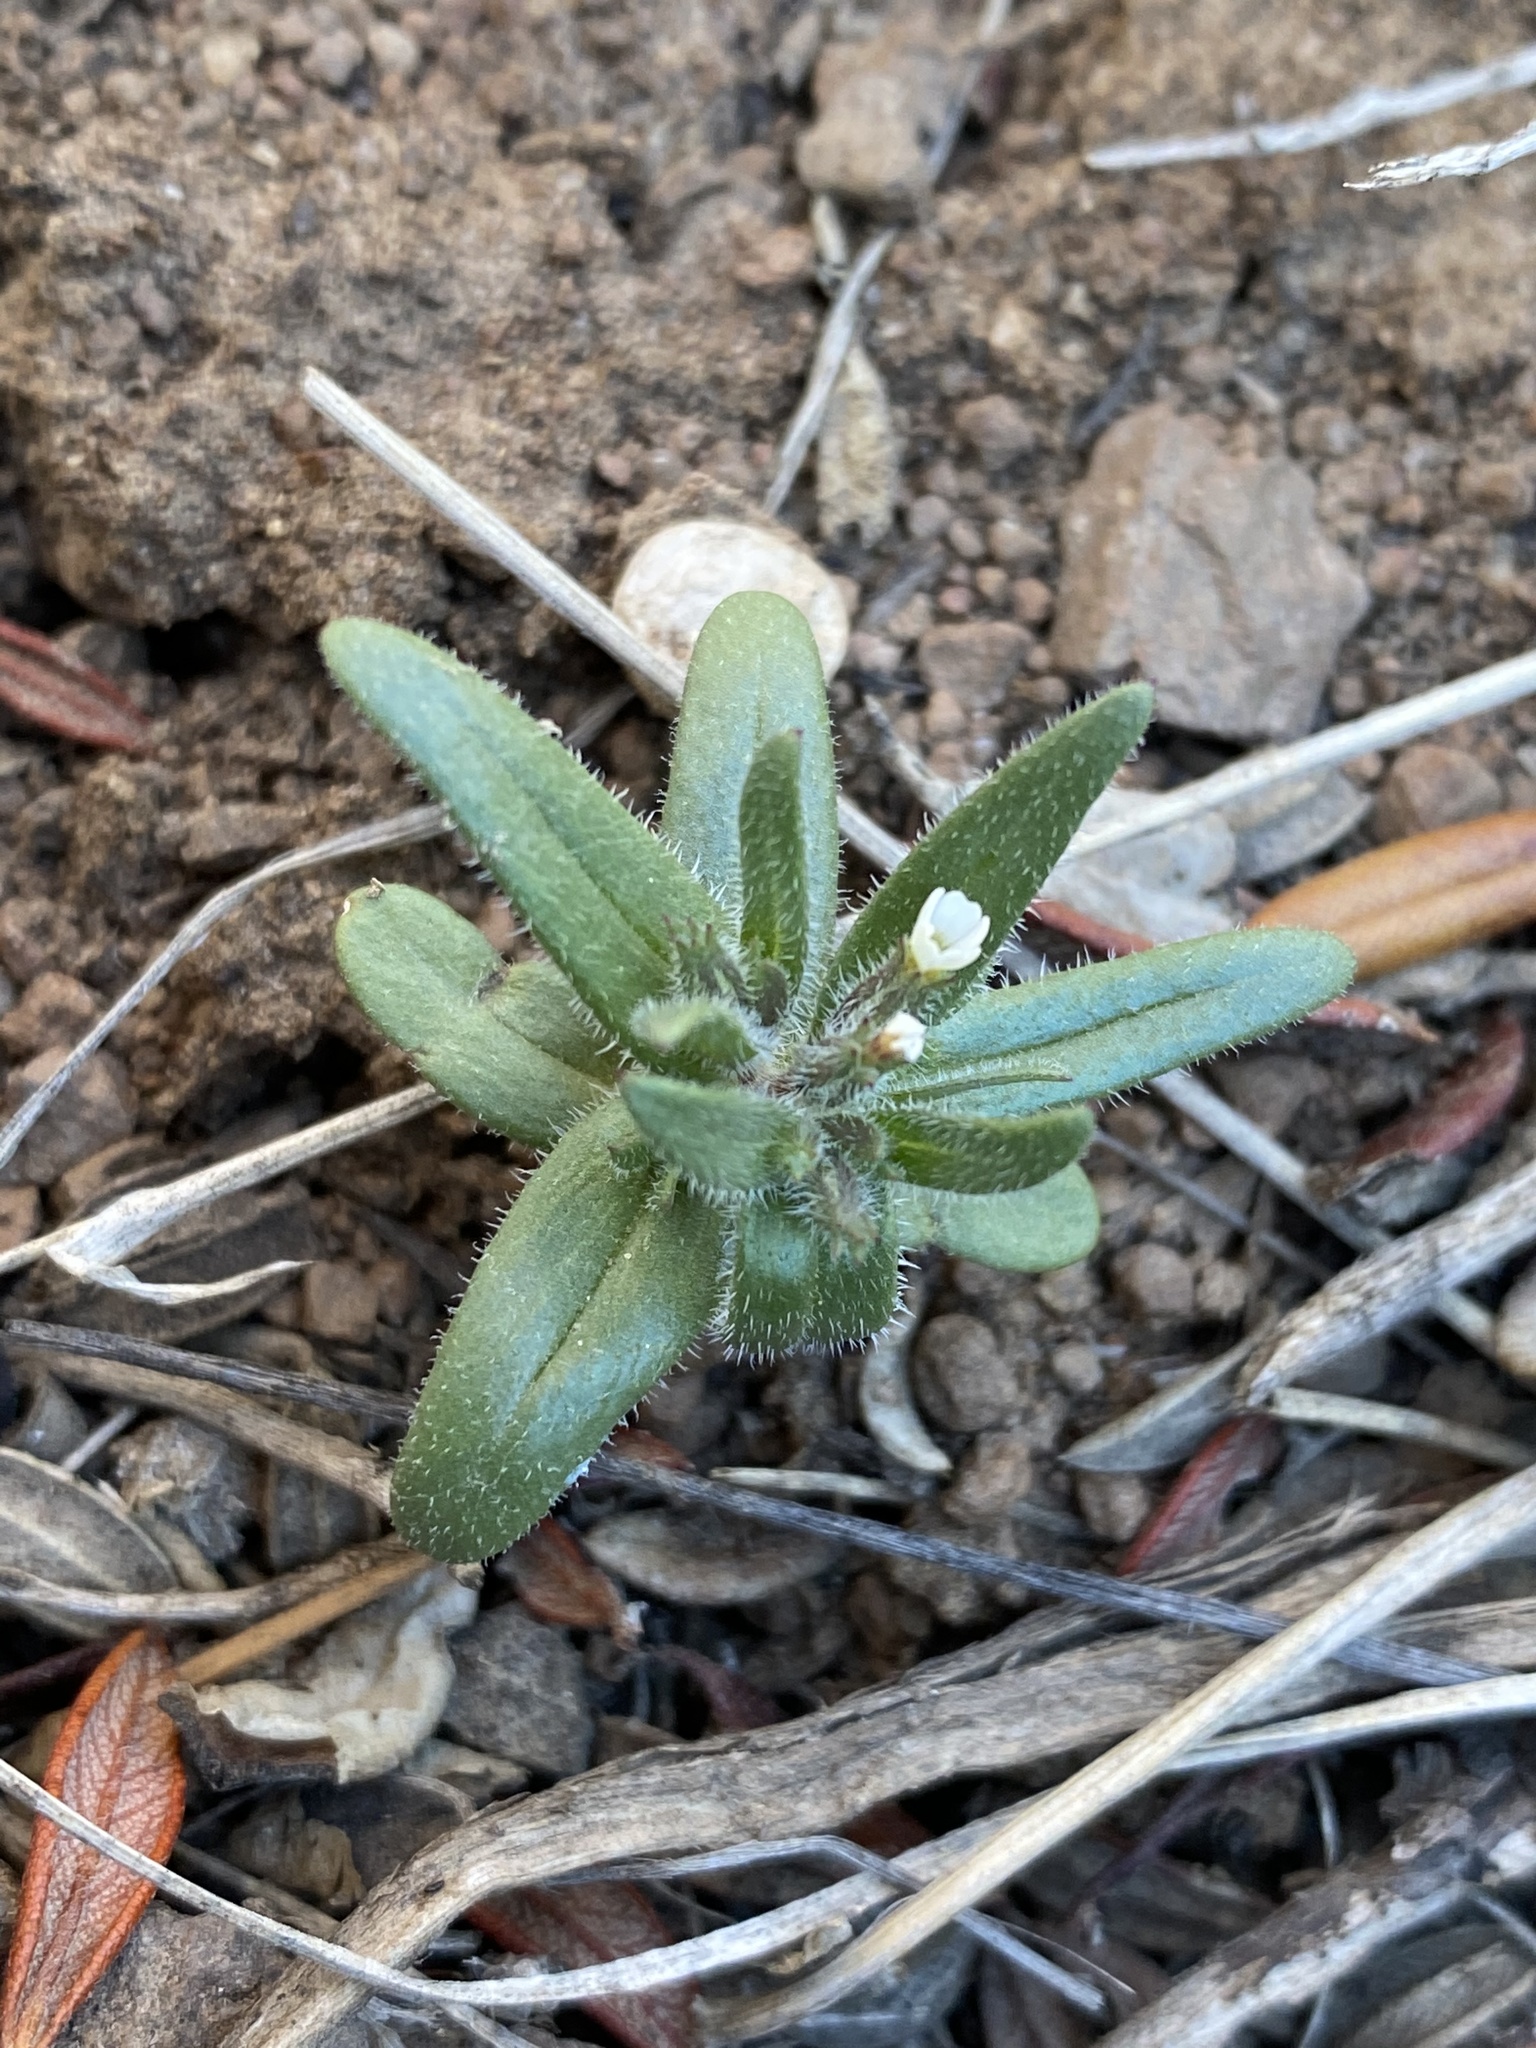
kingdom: Plantae
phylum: Tracheophyta
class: Magnoliopsida
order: Ericales
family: Polemoniaceae
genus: Phlox
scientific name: Phlox gracilis
